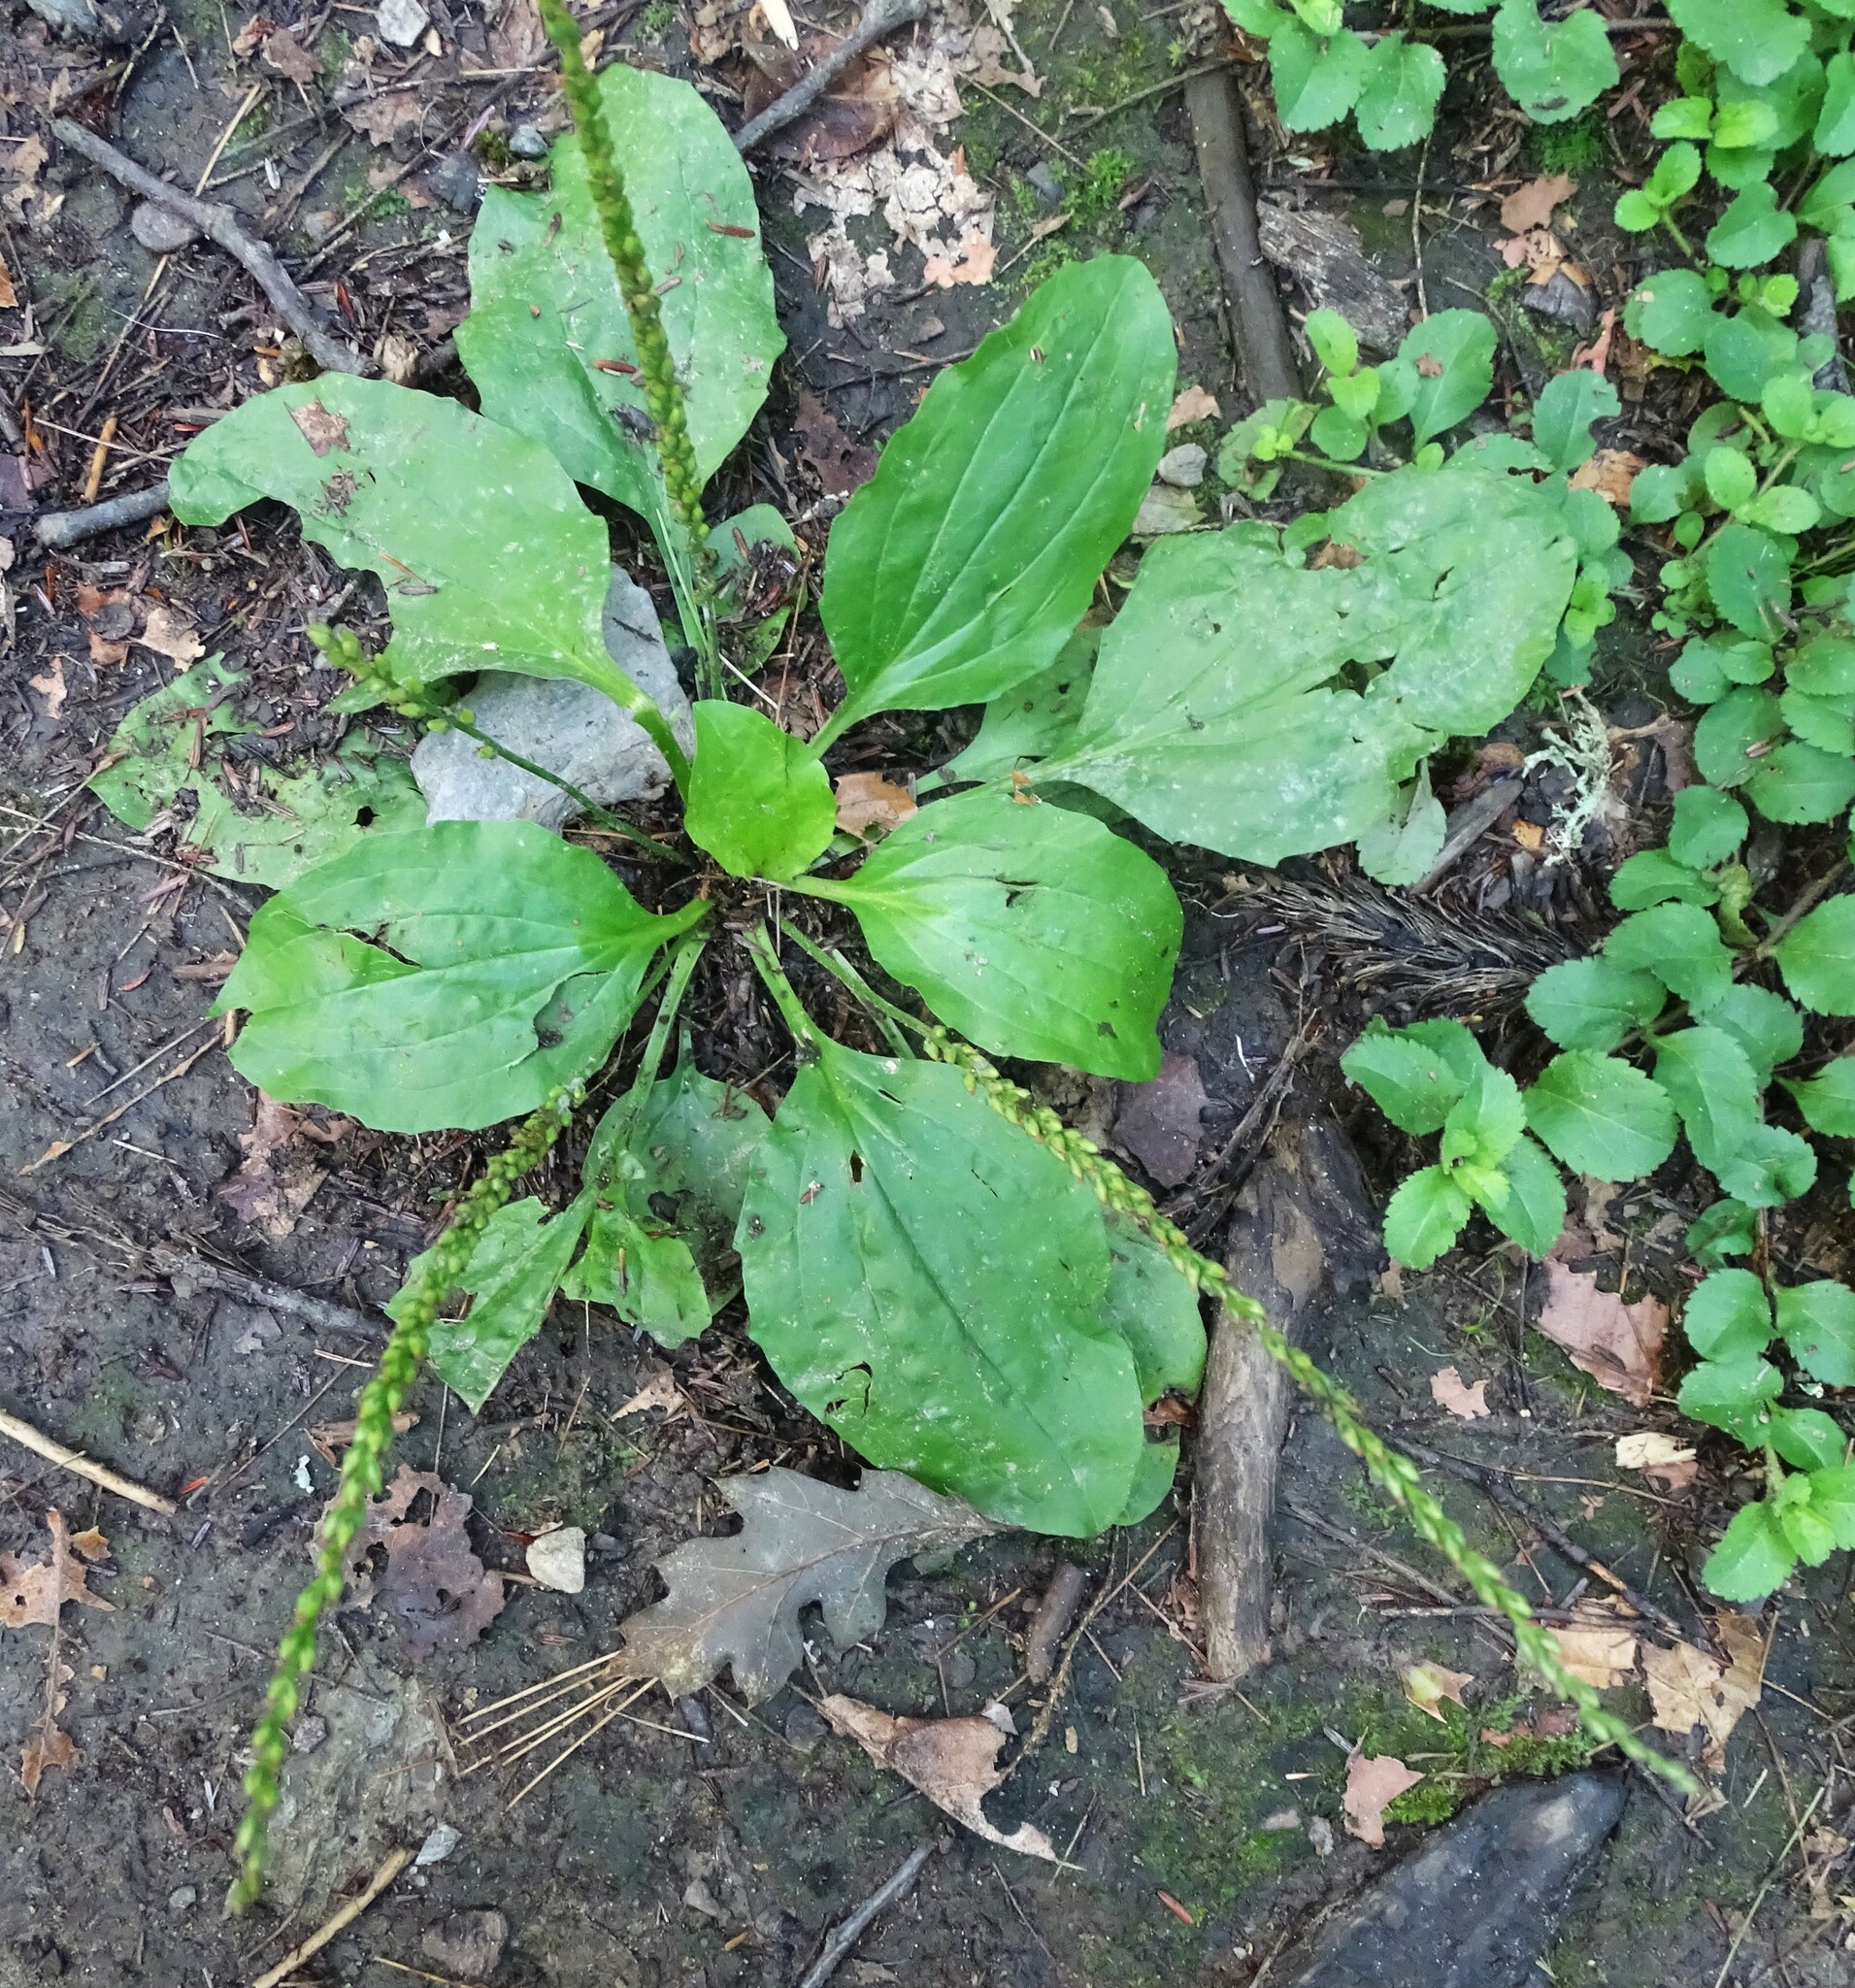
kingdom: Plantae
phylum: Tracheophyta
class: Magnoliopsida
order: Lamiales
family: Plantaginaceae
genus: Plantago
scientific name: Plantago major
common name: Common plantain
